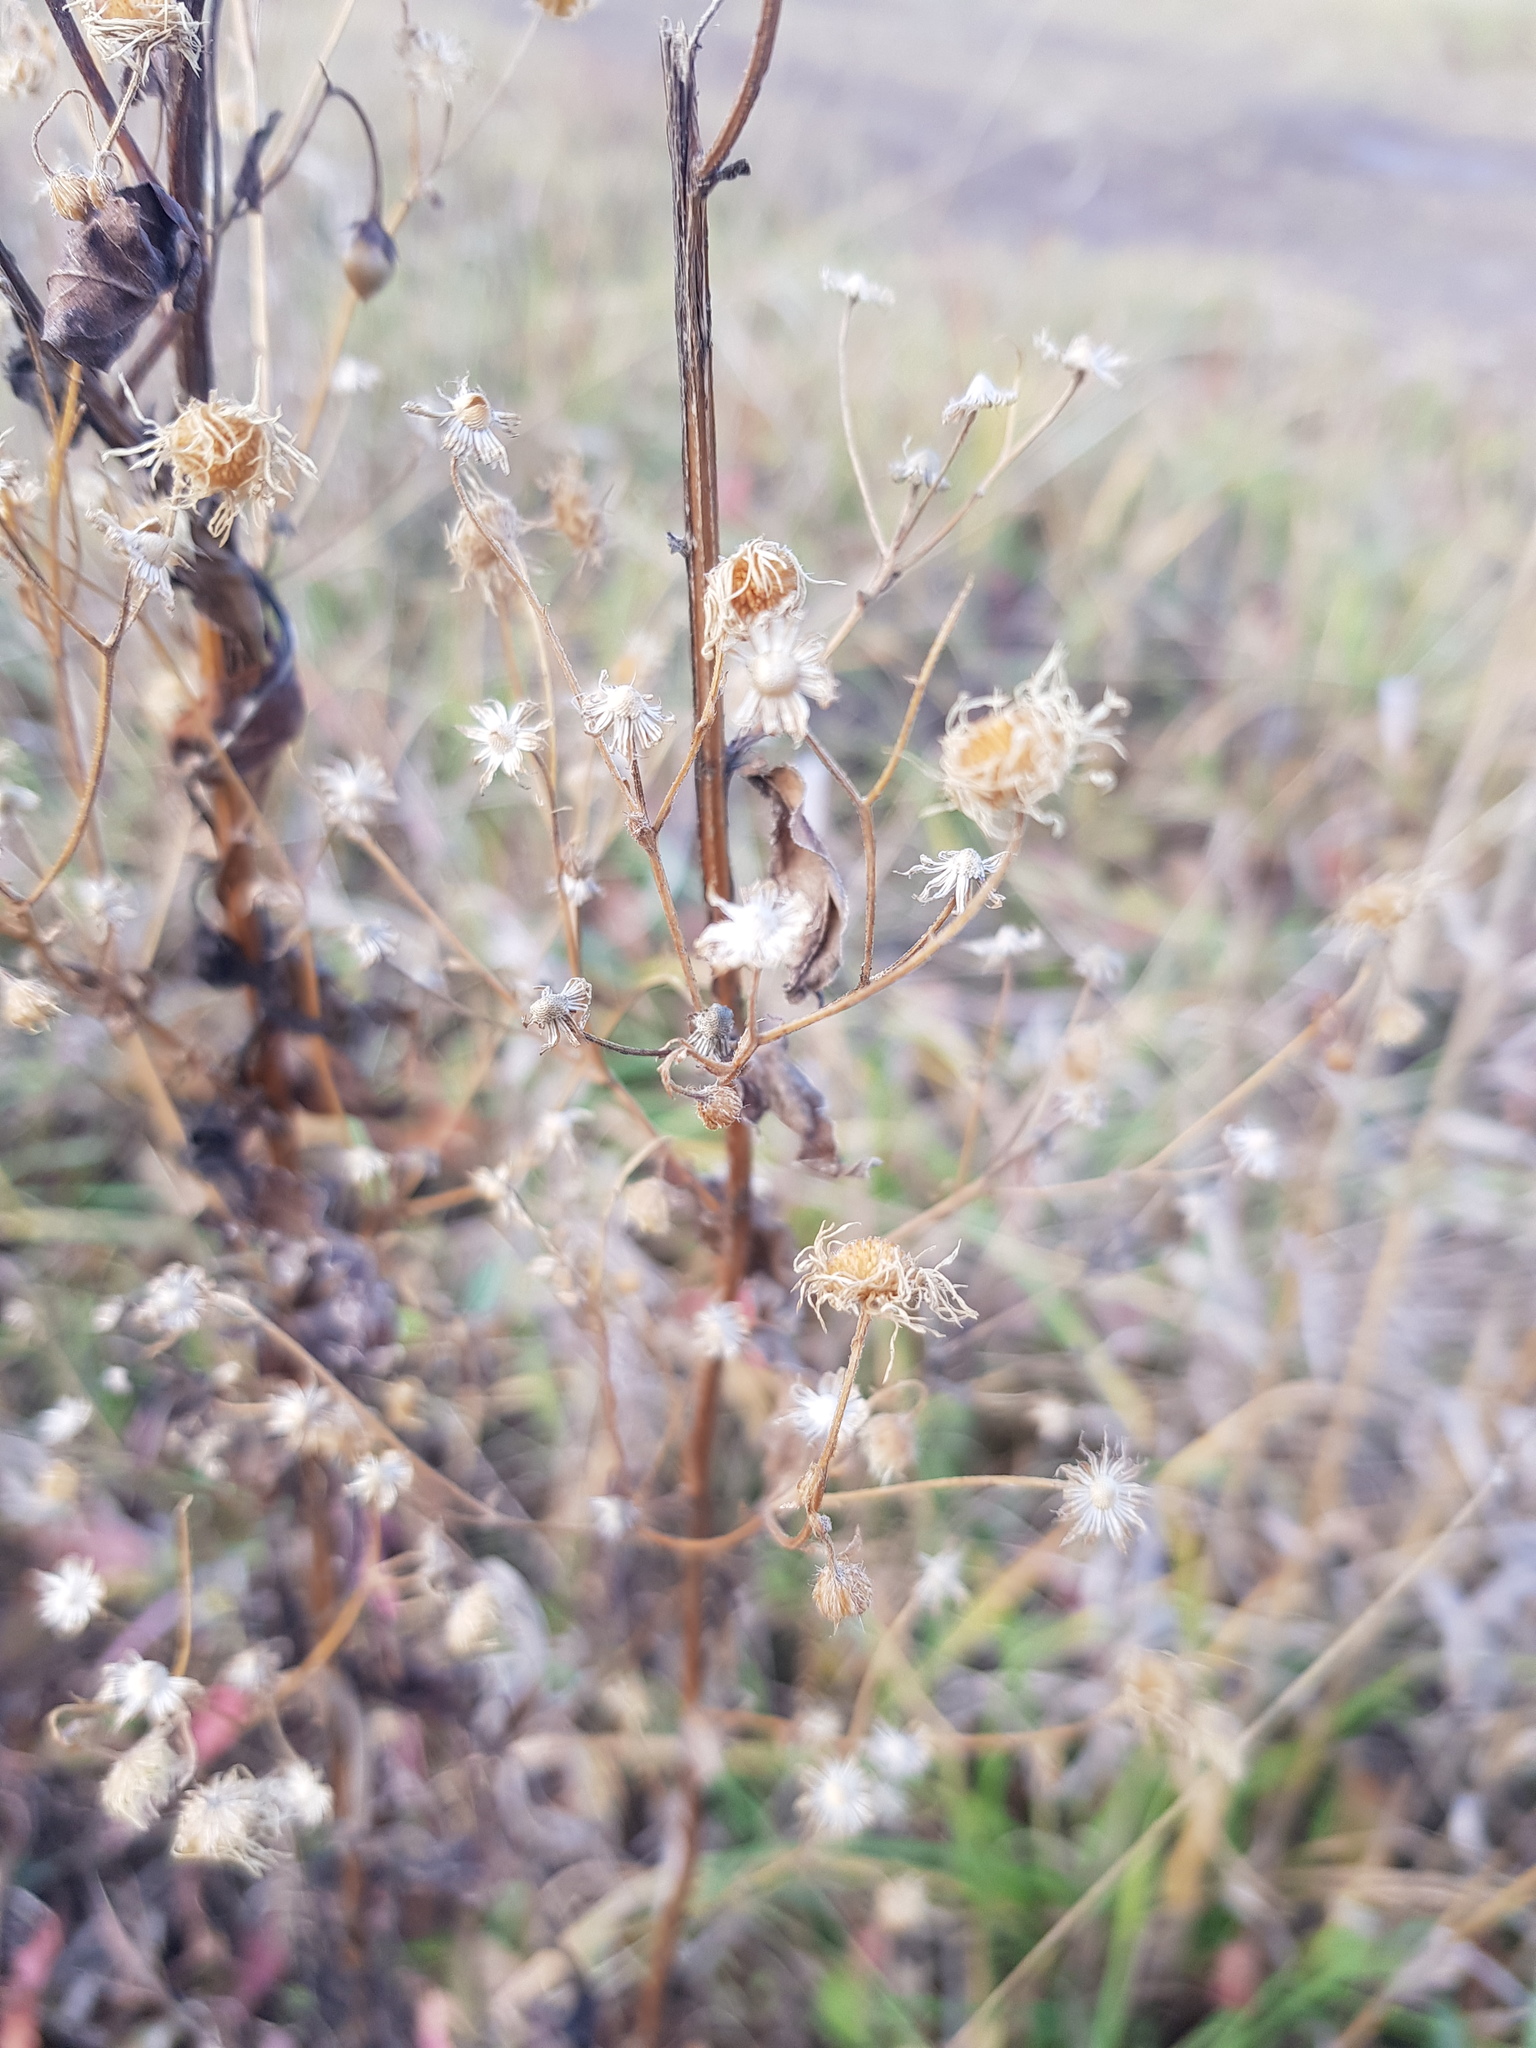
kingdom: Plantae
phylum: Tracheophyta
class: Magnoliopsida
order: Asterales
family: Asteraceae
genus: Erigeron
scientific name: Erigeron annuus
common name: Tall fleabane
